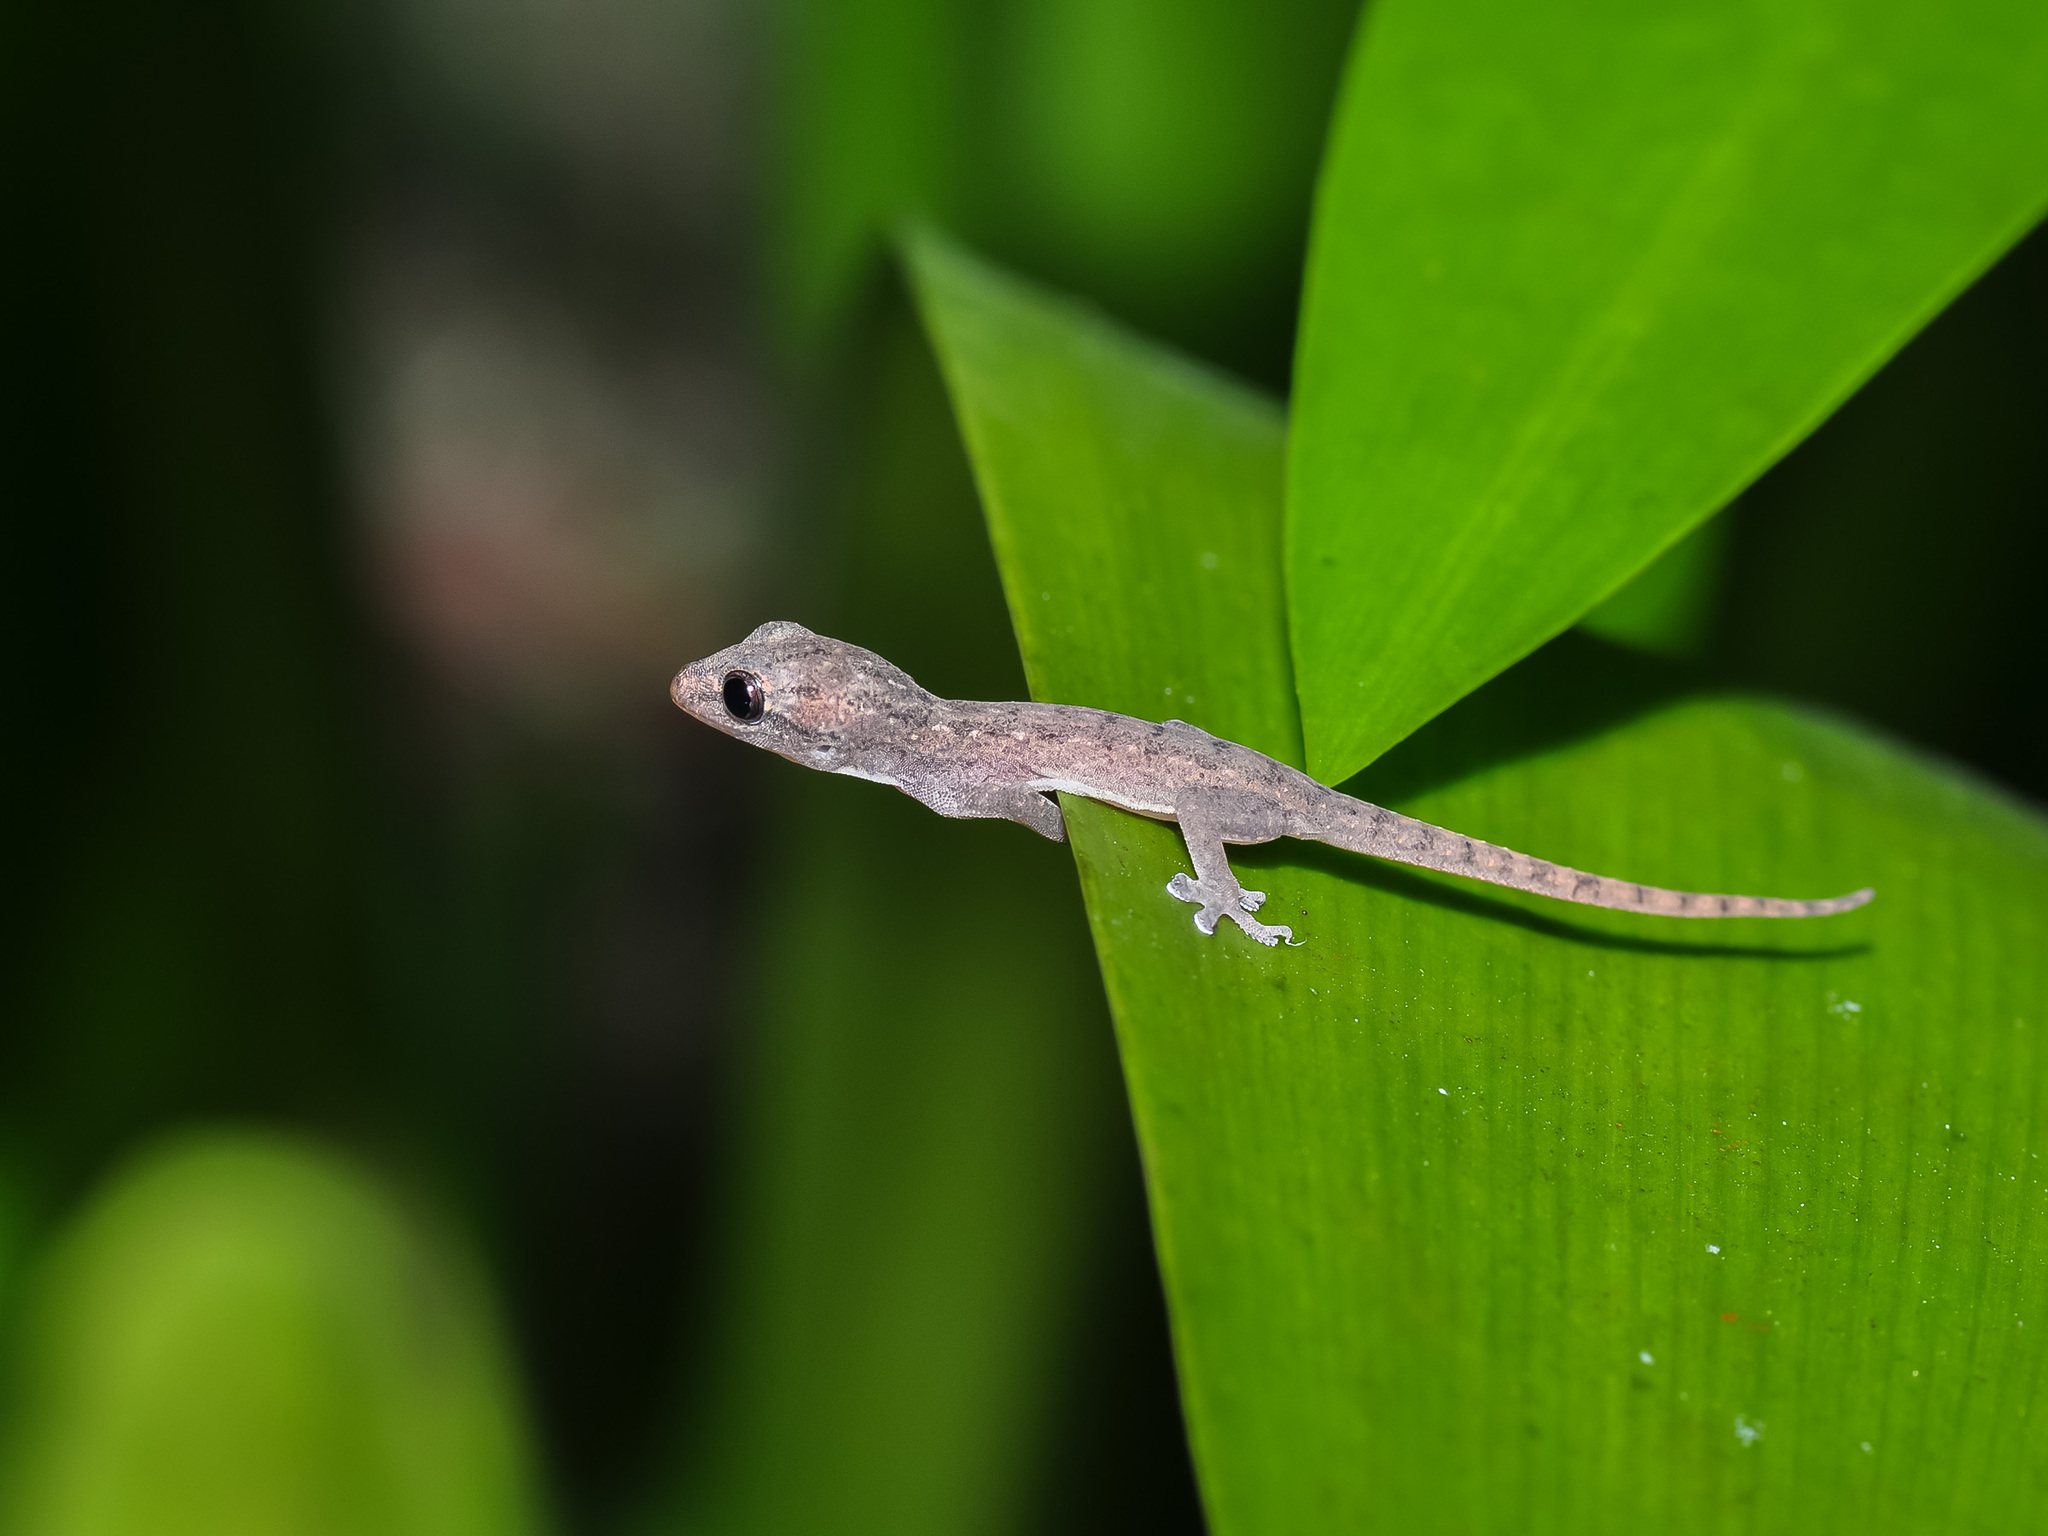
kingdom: Animalia
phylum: Chordata
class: Squamata
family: Gekkonidae
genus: Hemidactylus
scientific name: Hemidactylus frenatus
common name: Common house gecko
